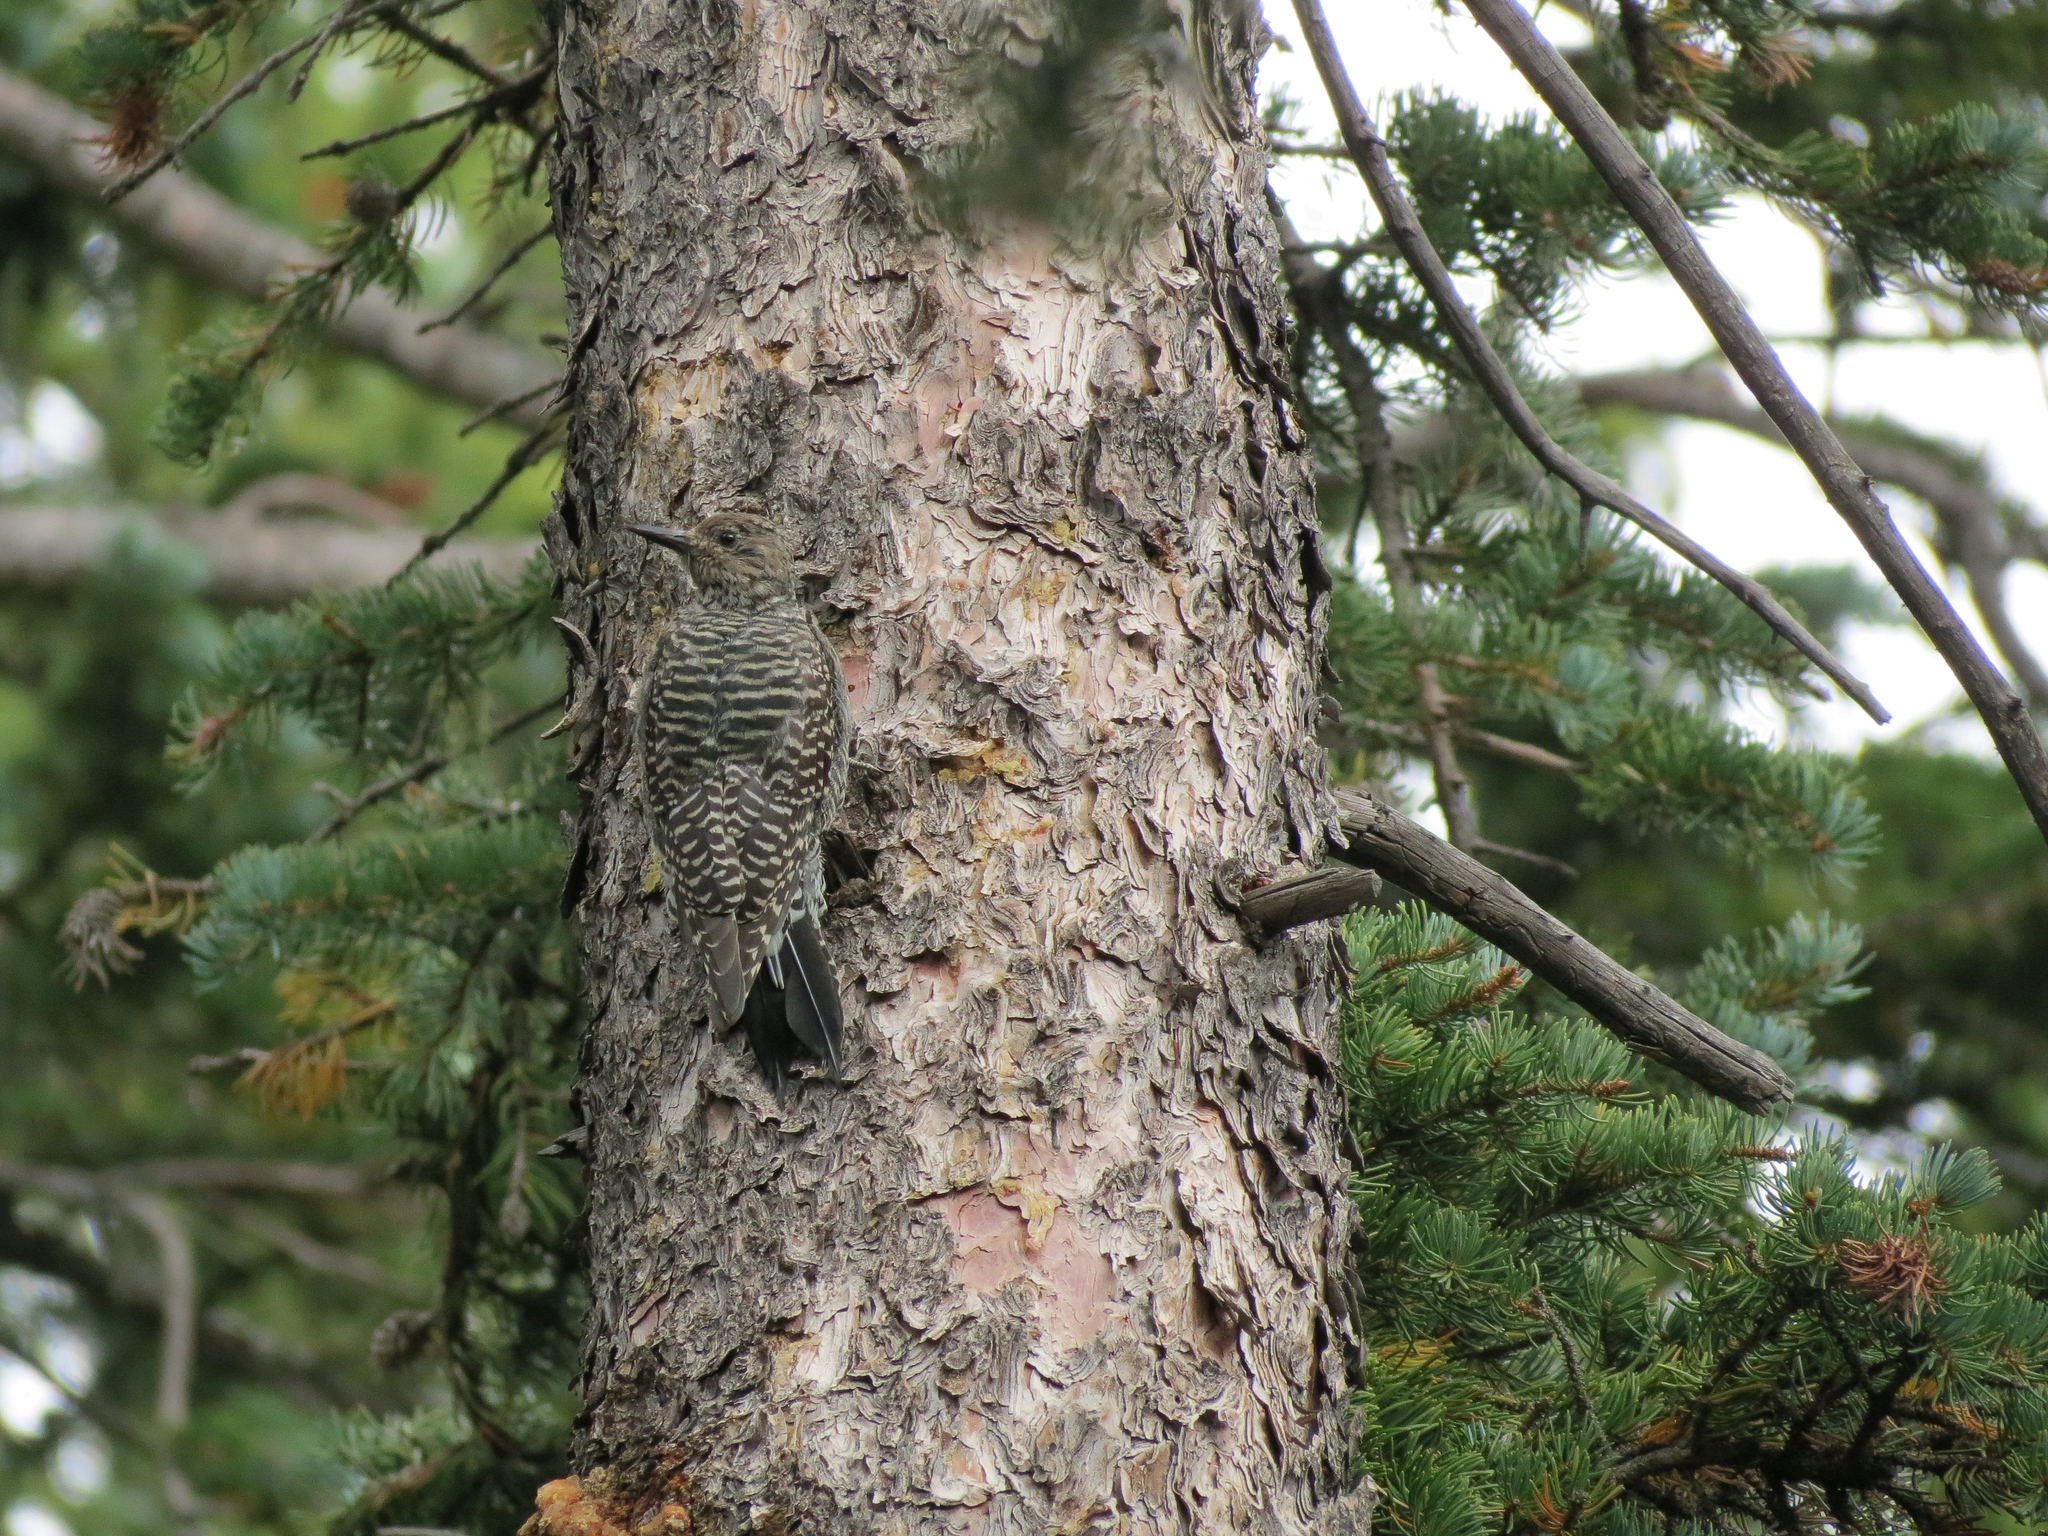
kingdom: Animalia
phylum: Chordata
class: Aves
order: Piciformes
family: Picidae
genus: Sphyrapicus
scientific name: Sphyrapicus thyroideus
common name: Williamson's sapsucker
